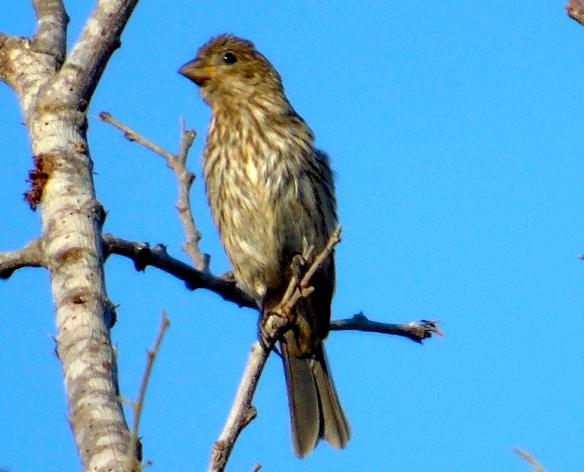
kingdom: Animalia
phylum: Chordata
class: Aves
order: Passeriformes
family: Fringillidae
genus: Haemorhous
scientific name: Haemorhous mexicanus
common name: House finch
